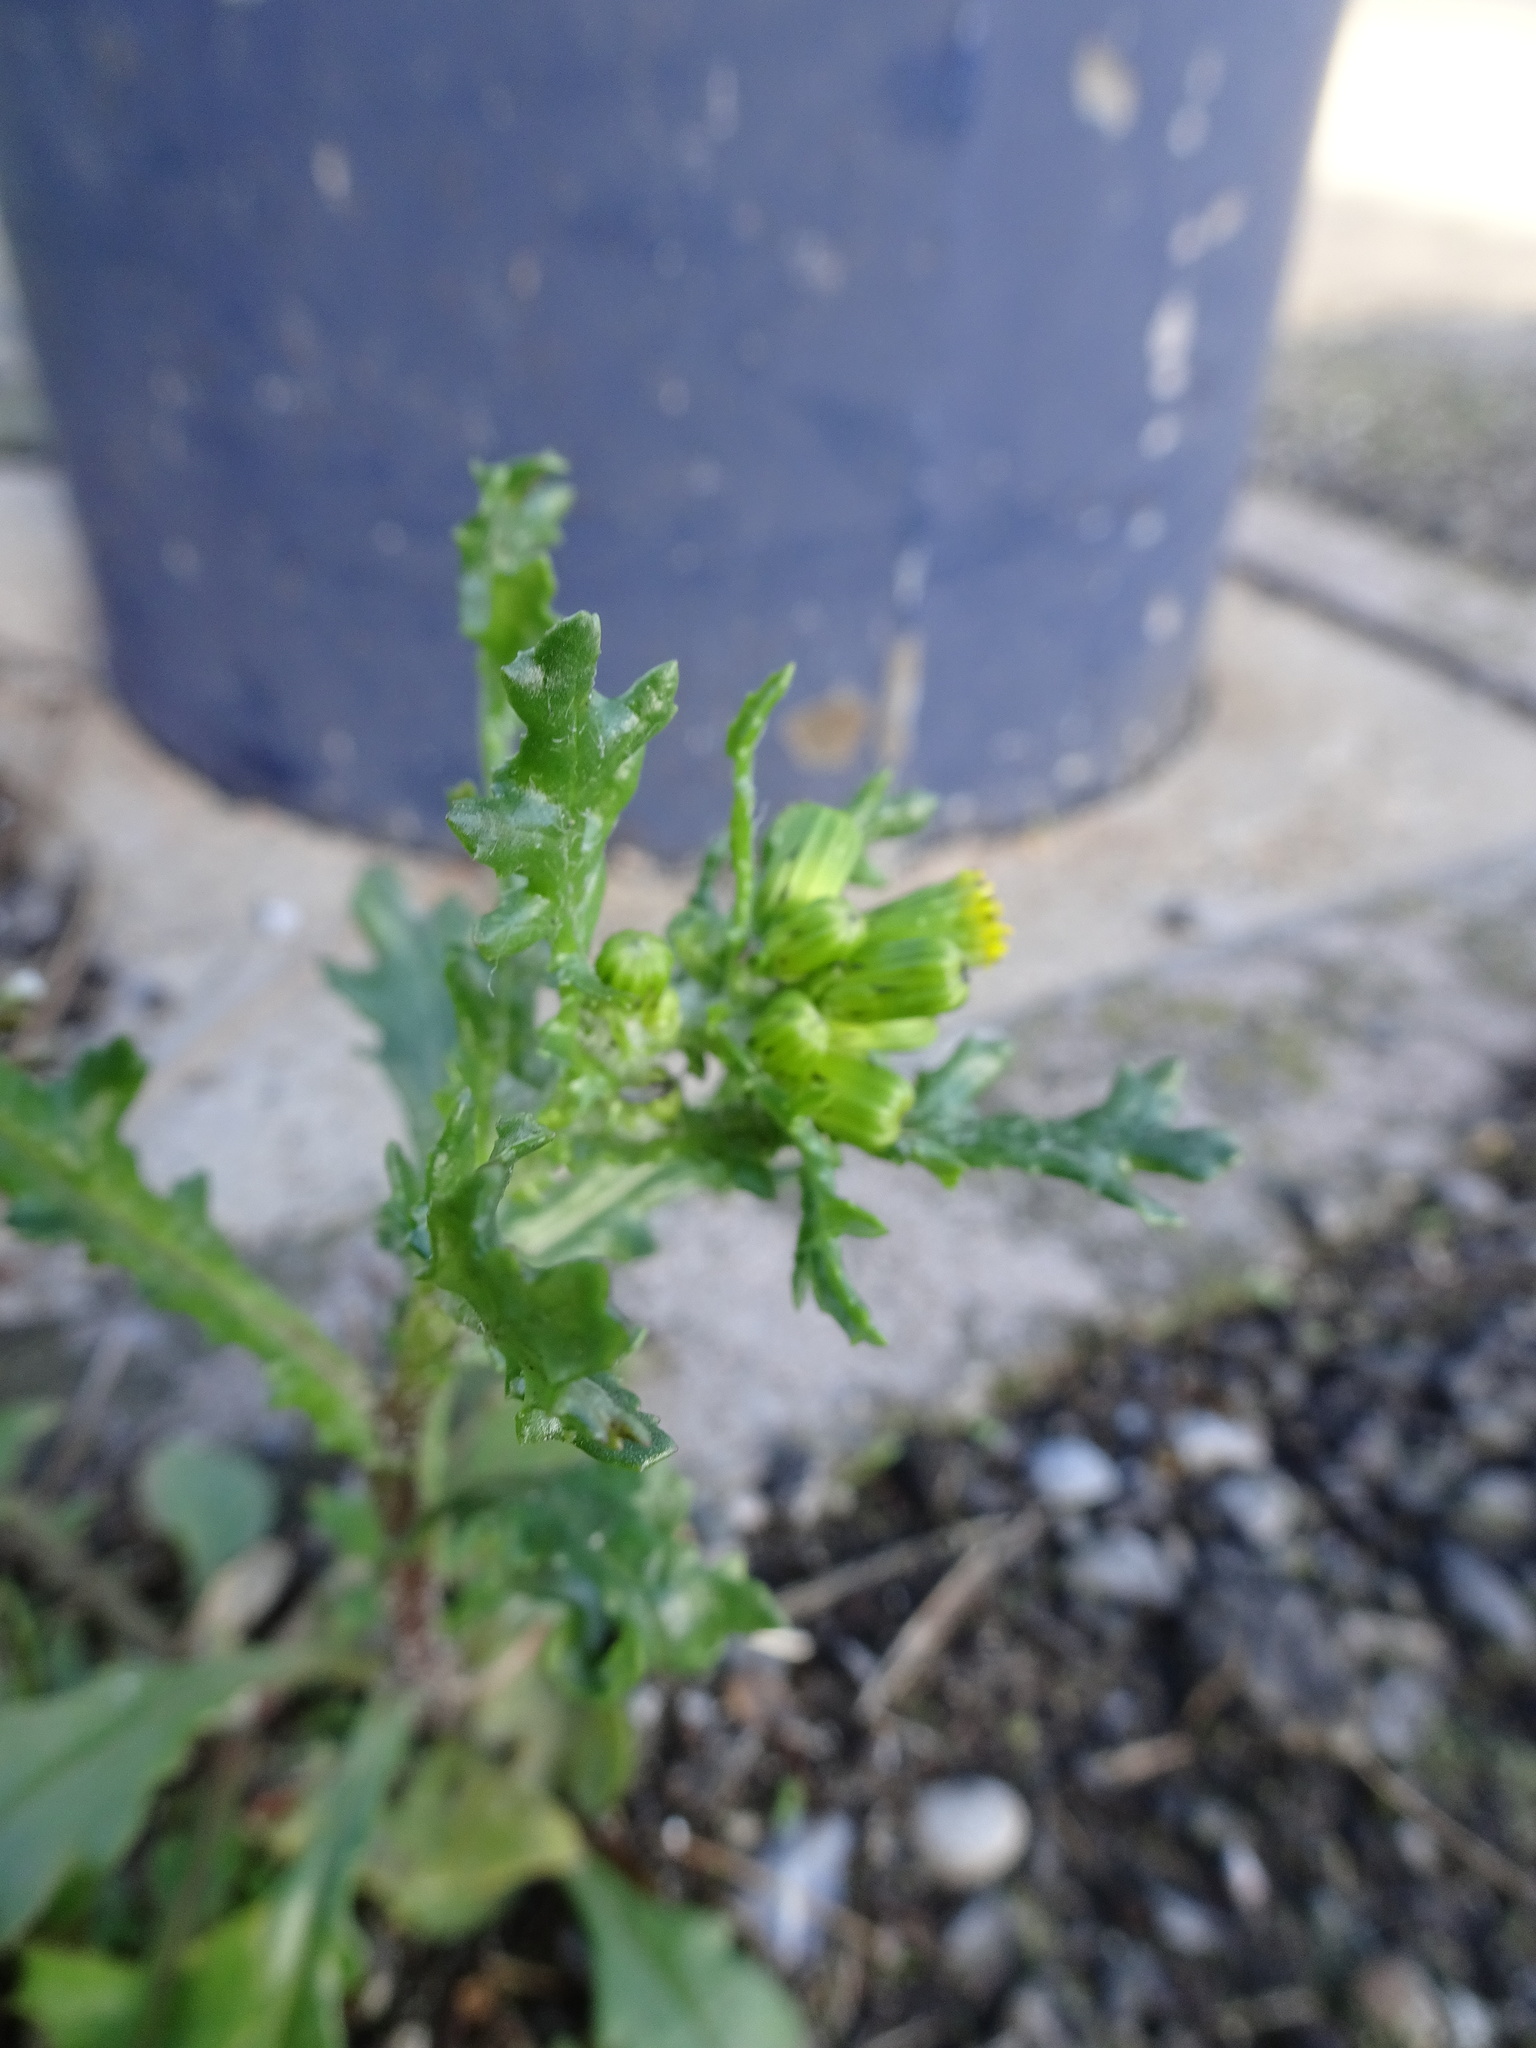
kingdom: Plantae
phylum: Tracheophyta
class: Magnoliopsida
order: Asterales
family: Asteraceae
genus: Senecio
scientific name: Senecio vulgaris
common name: Old-man-in-the-spring
